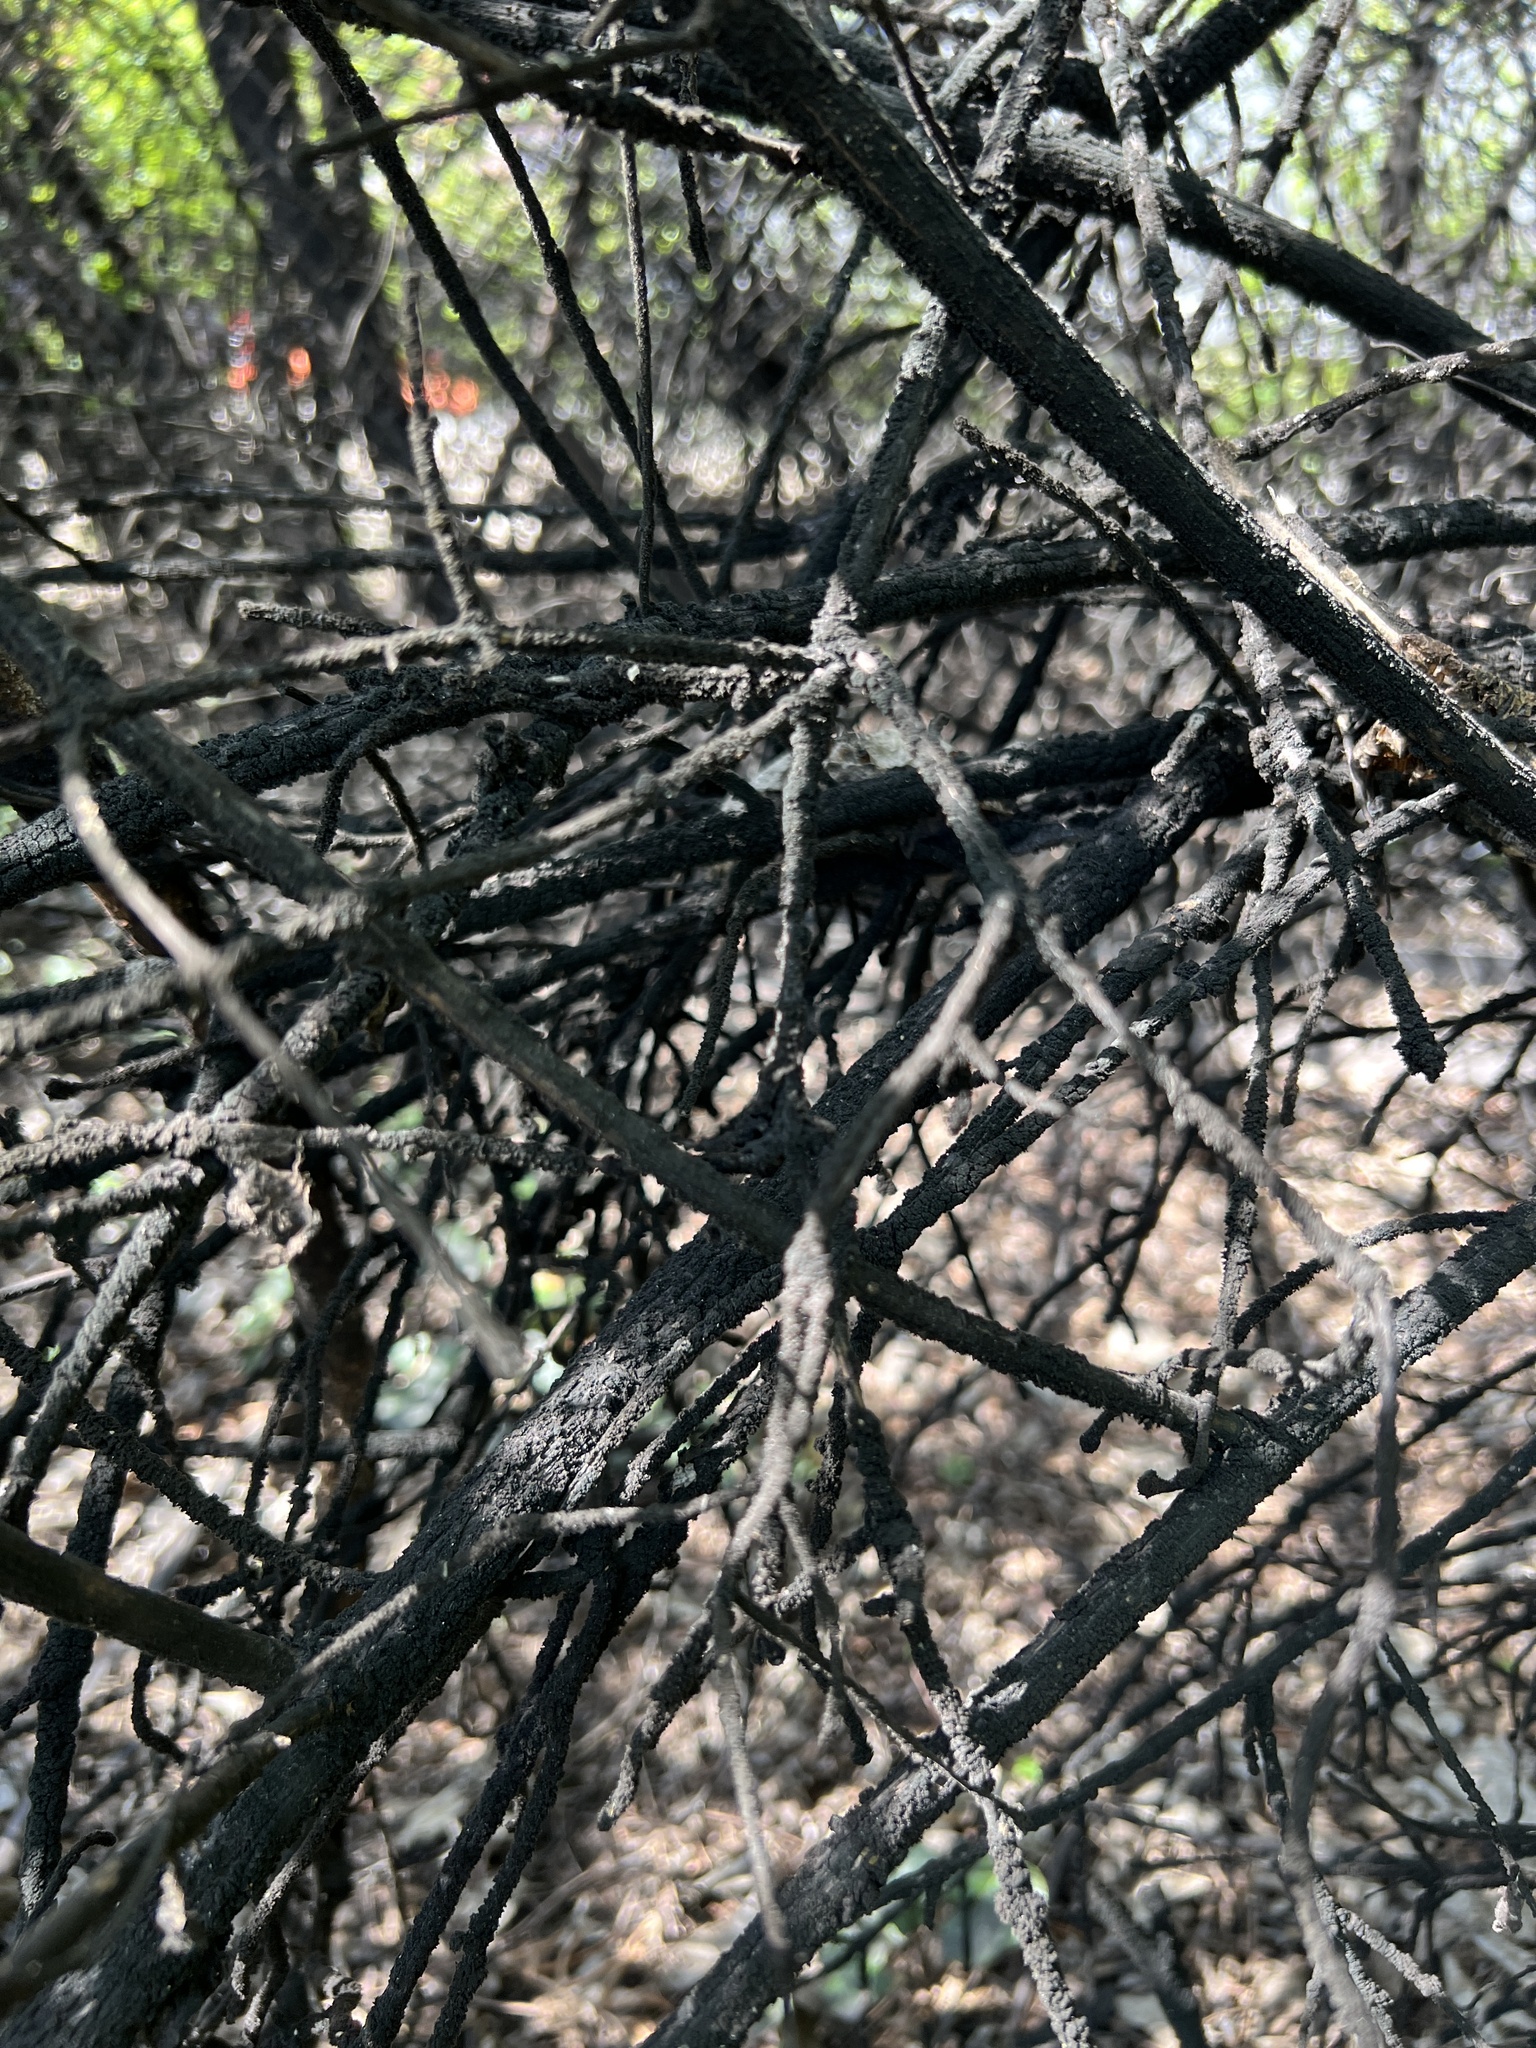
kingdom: Fungi
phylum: Ascomycota
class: Dothideomycetes
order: Capnodiales
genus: Baudoinia
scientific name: Baudoinia compniacensis
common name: Angel's share
